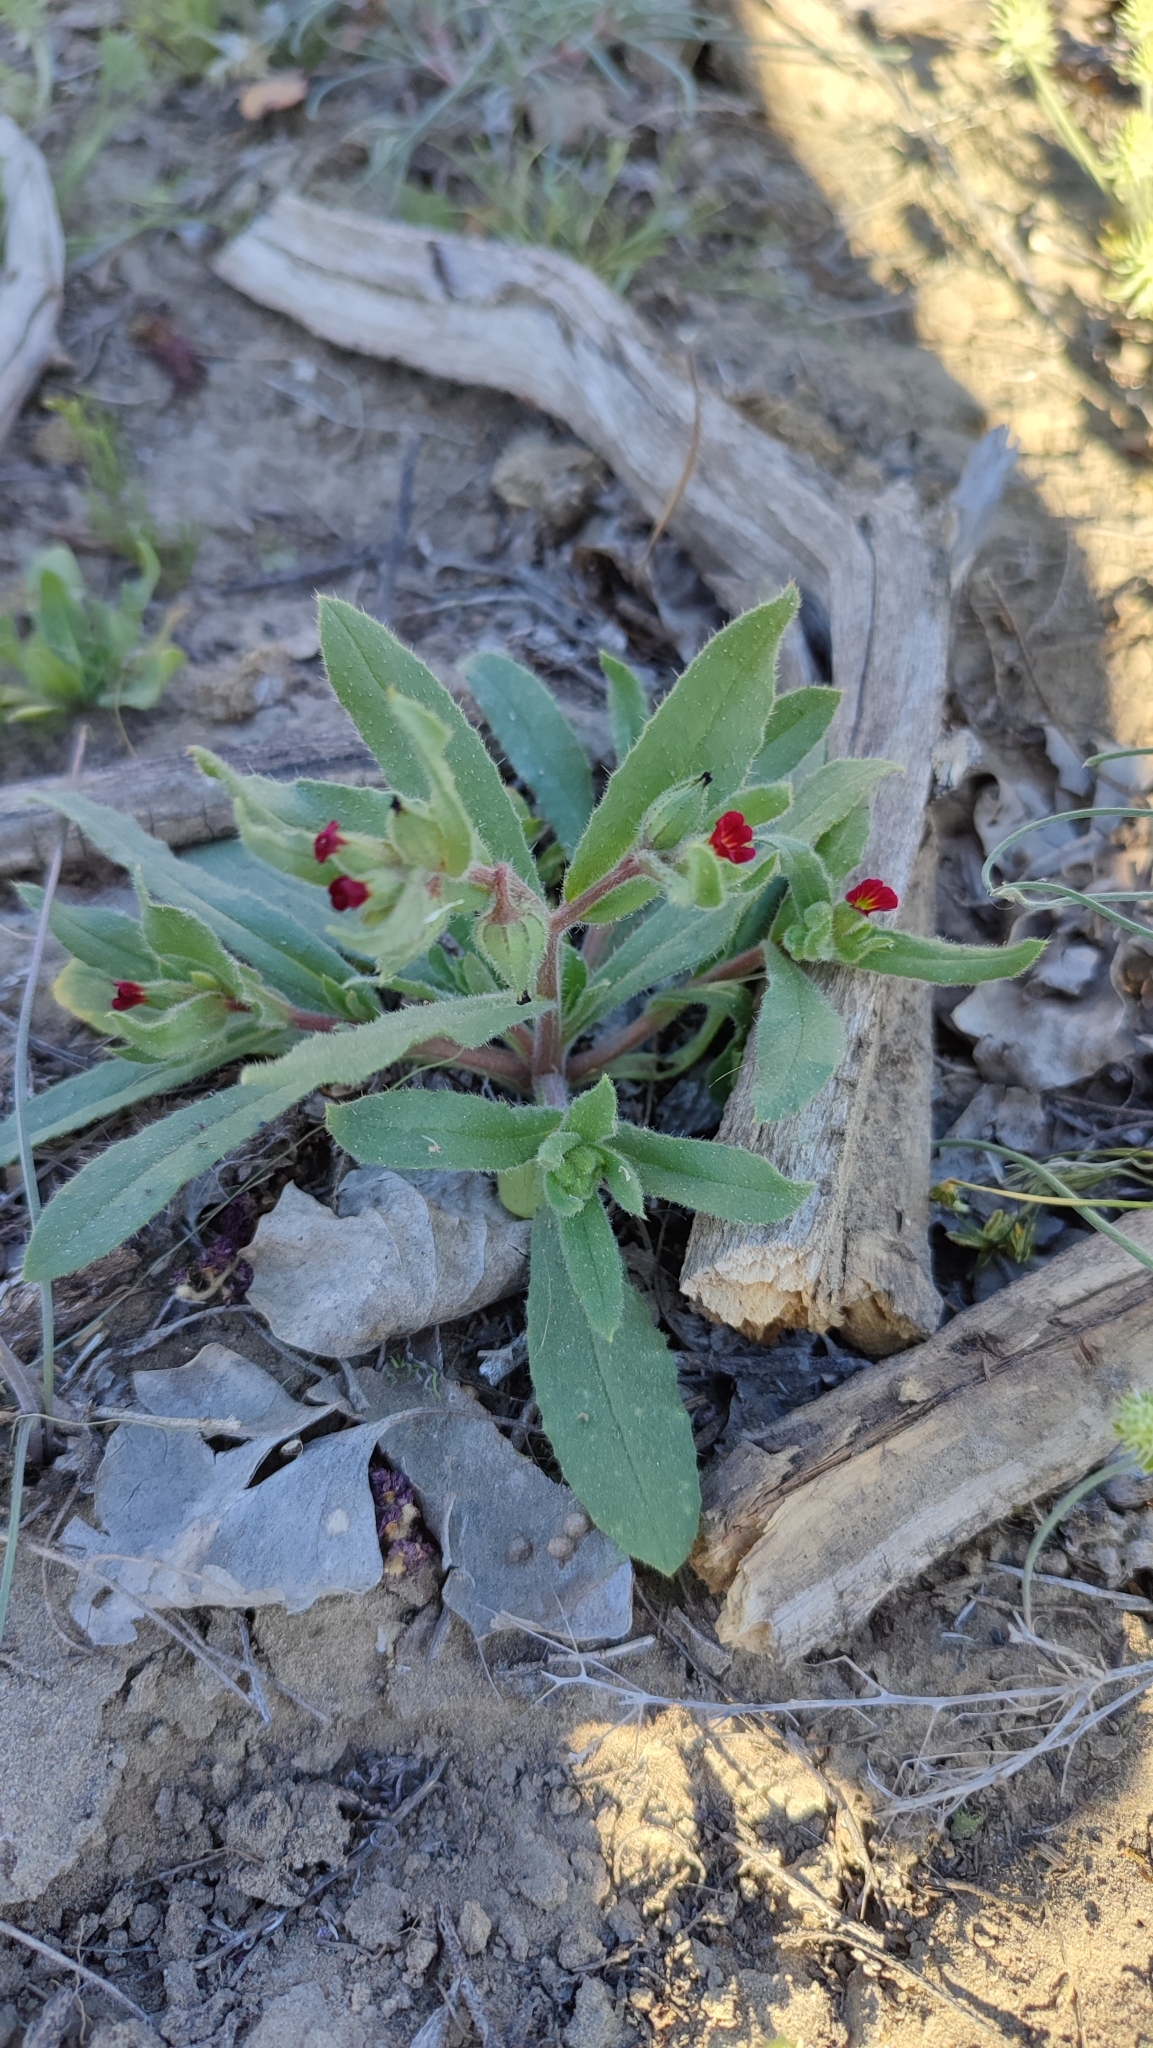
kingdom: Plantae
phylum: Tracheophyta
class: Magnoliopsida
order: Boraginales
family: Boraginaceae
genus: Nonea
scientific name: Nonea caspica
